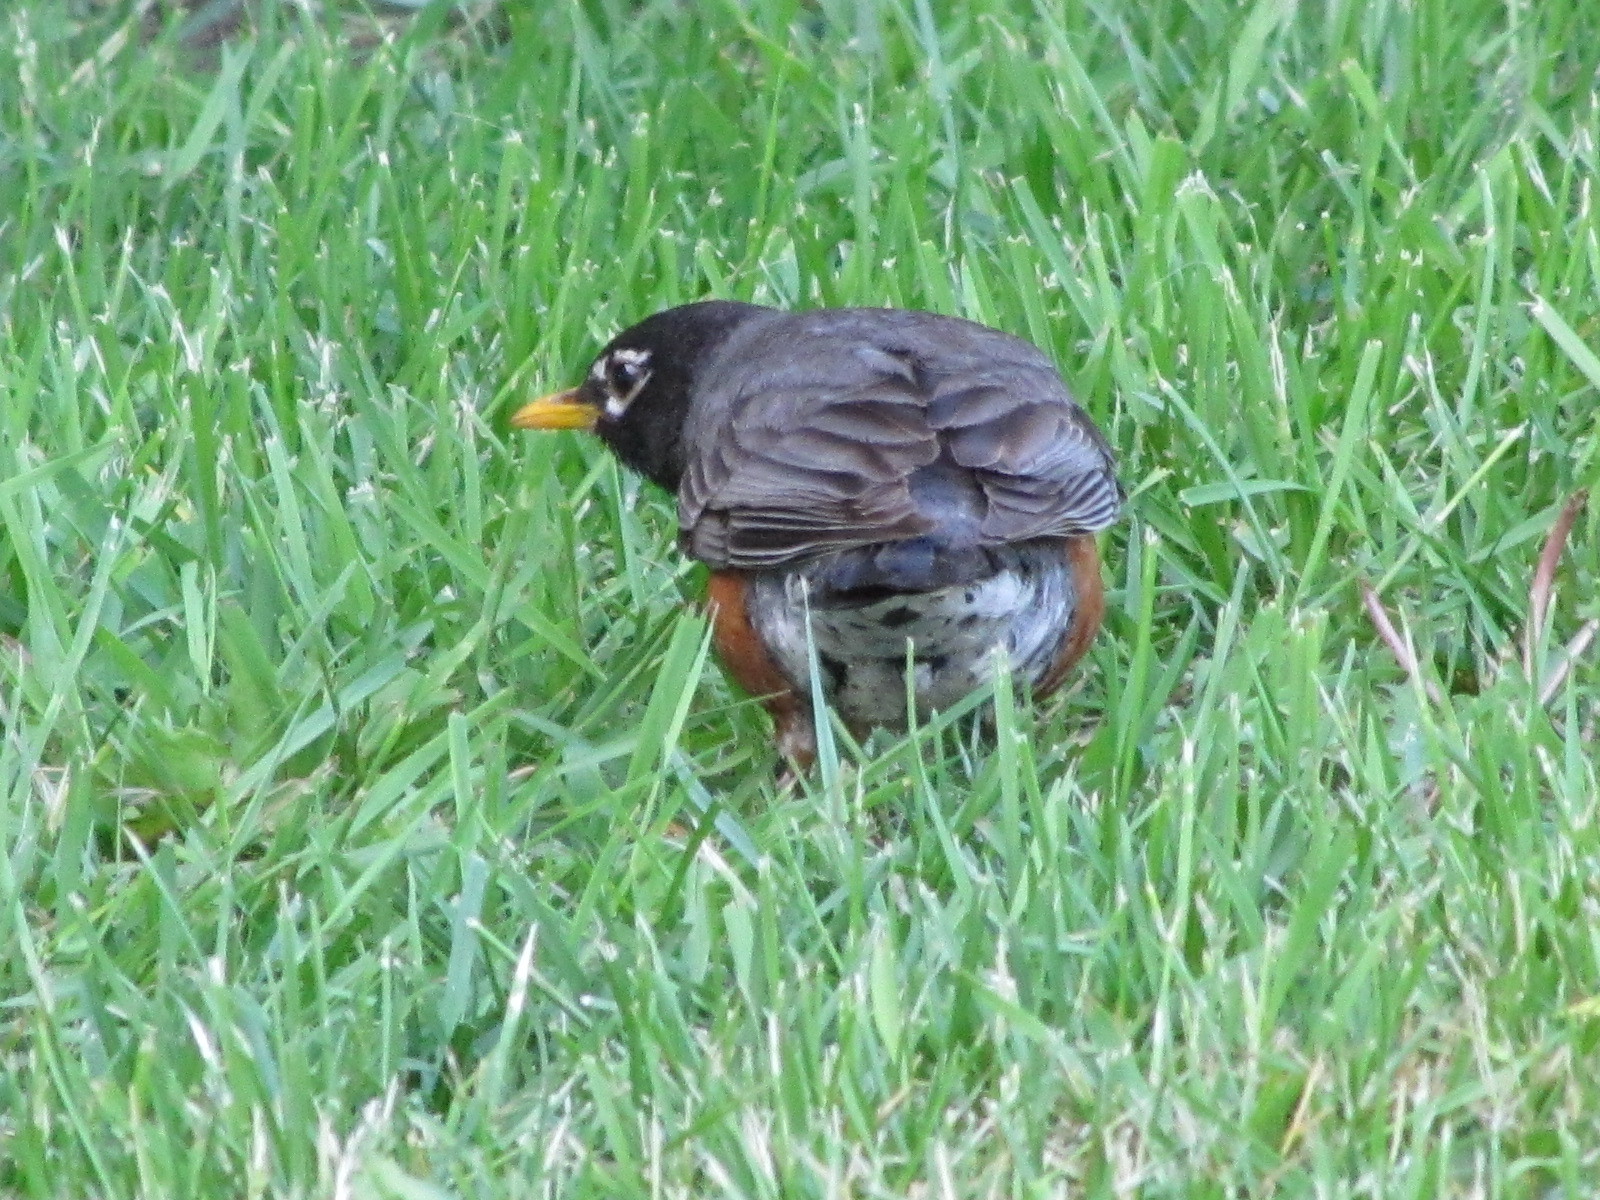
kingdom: Animalia
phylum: Chordata
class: Aves
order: Passeriformes
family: Turdidae
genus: Turdus
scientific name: Turdus migratorius
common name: American robin
